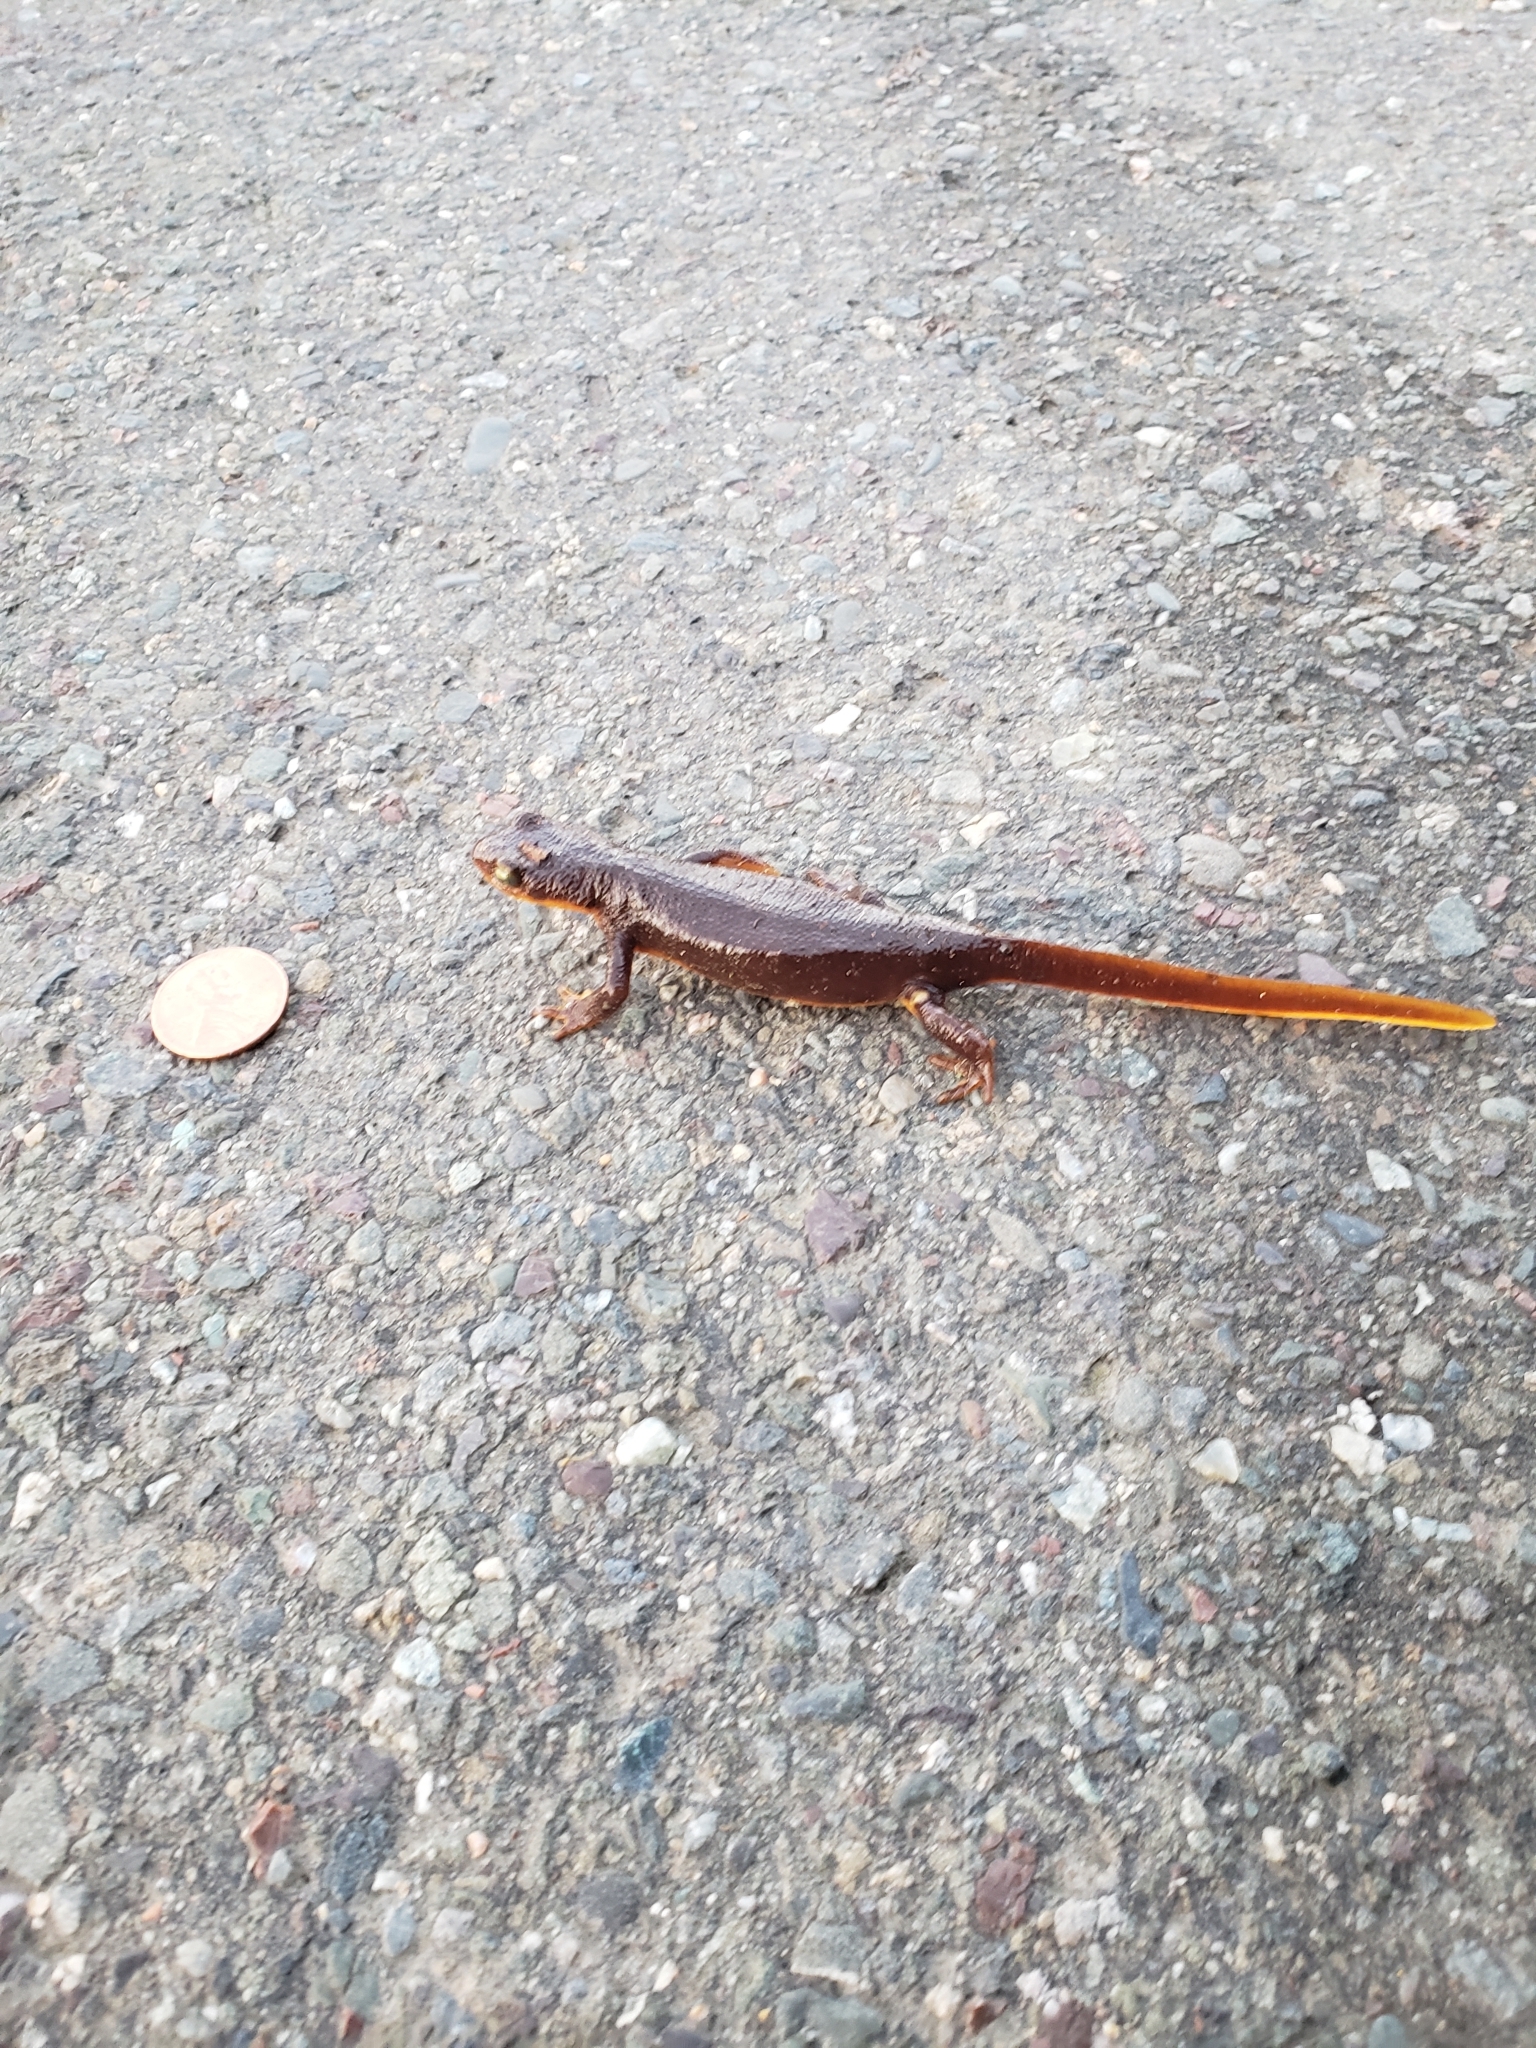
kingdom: Animalia
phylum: Chordata
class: Amphibia
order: Caudata
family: Salamandridae
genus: Taricha
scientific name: Taricha torosa
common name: California newt
